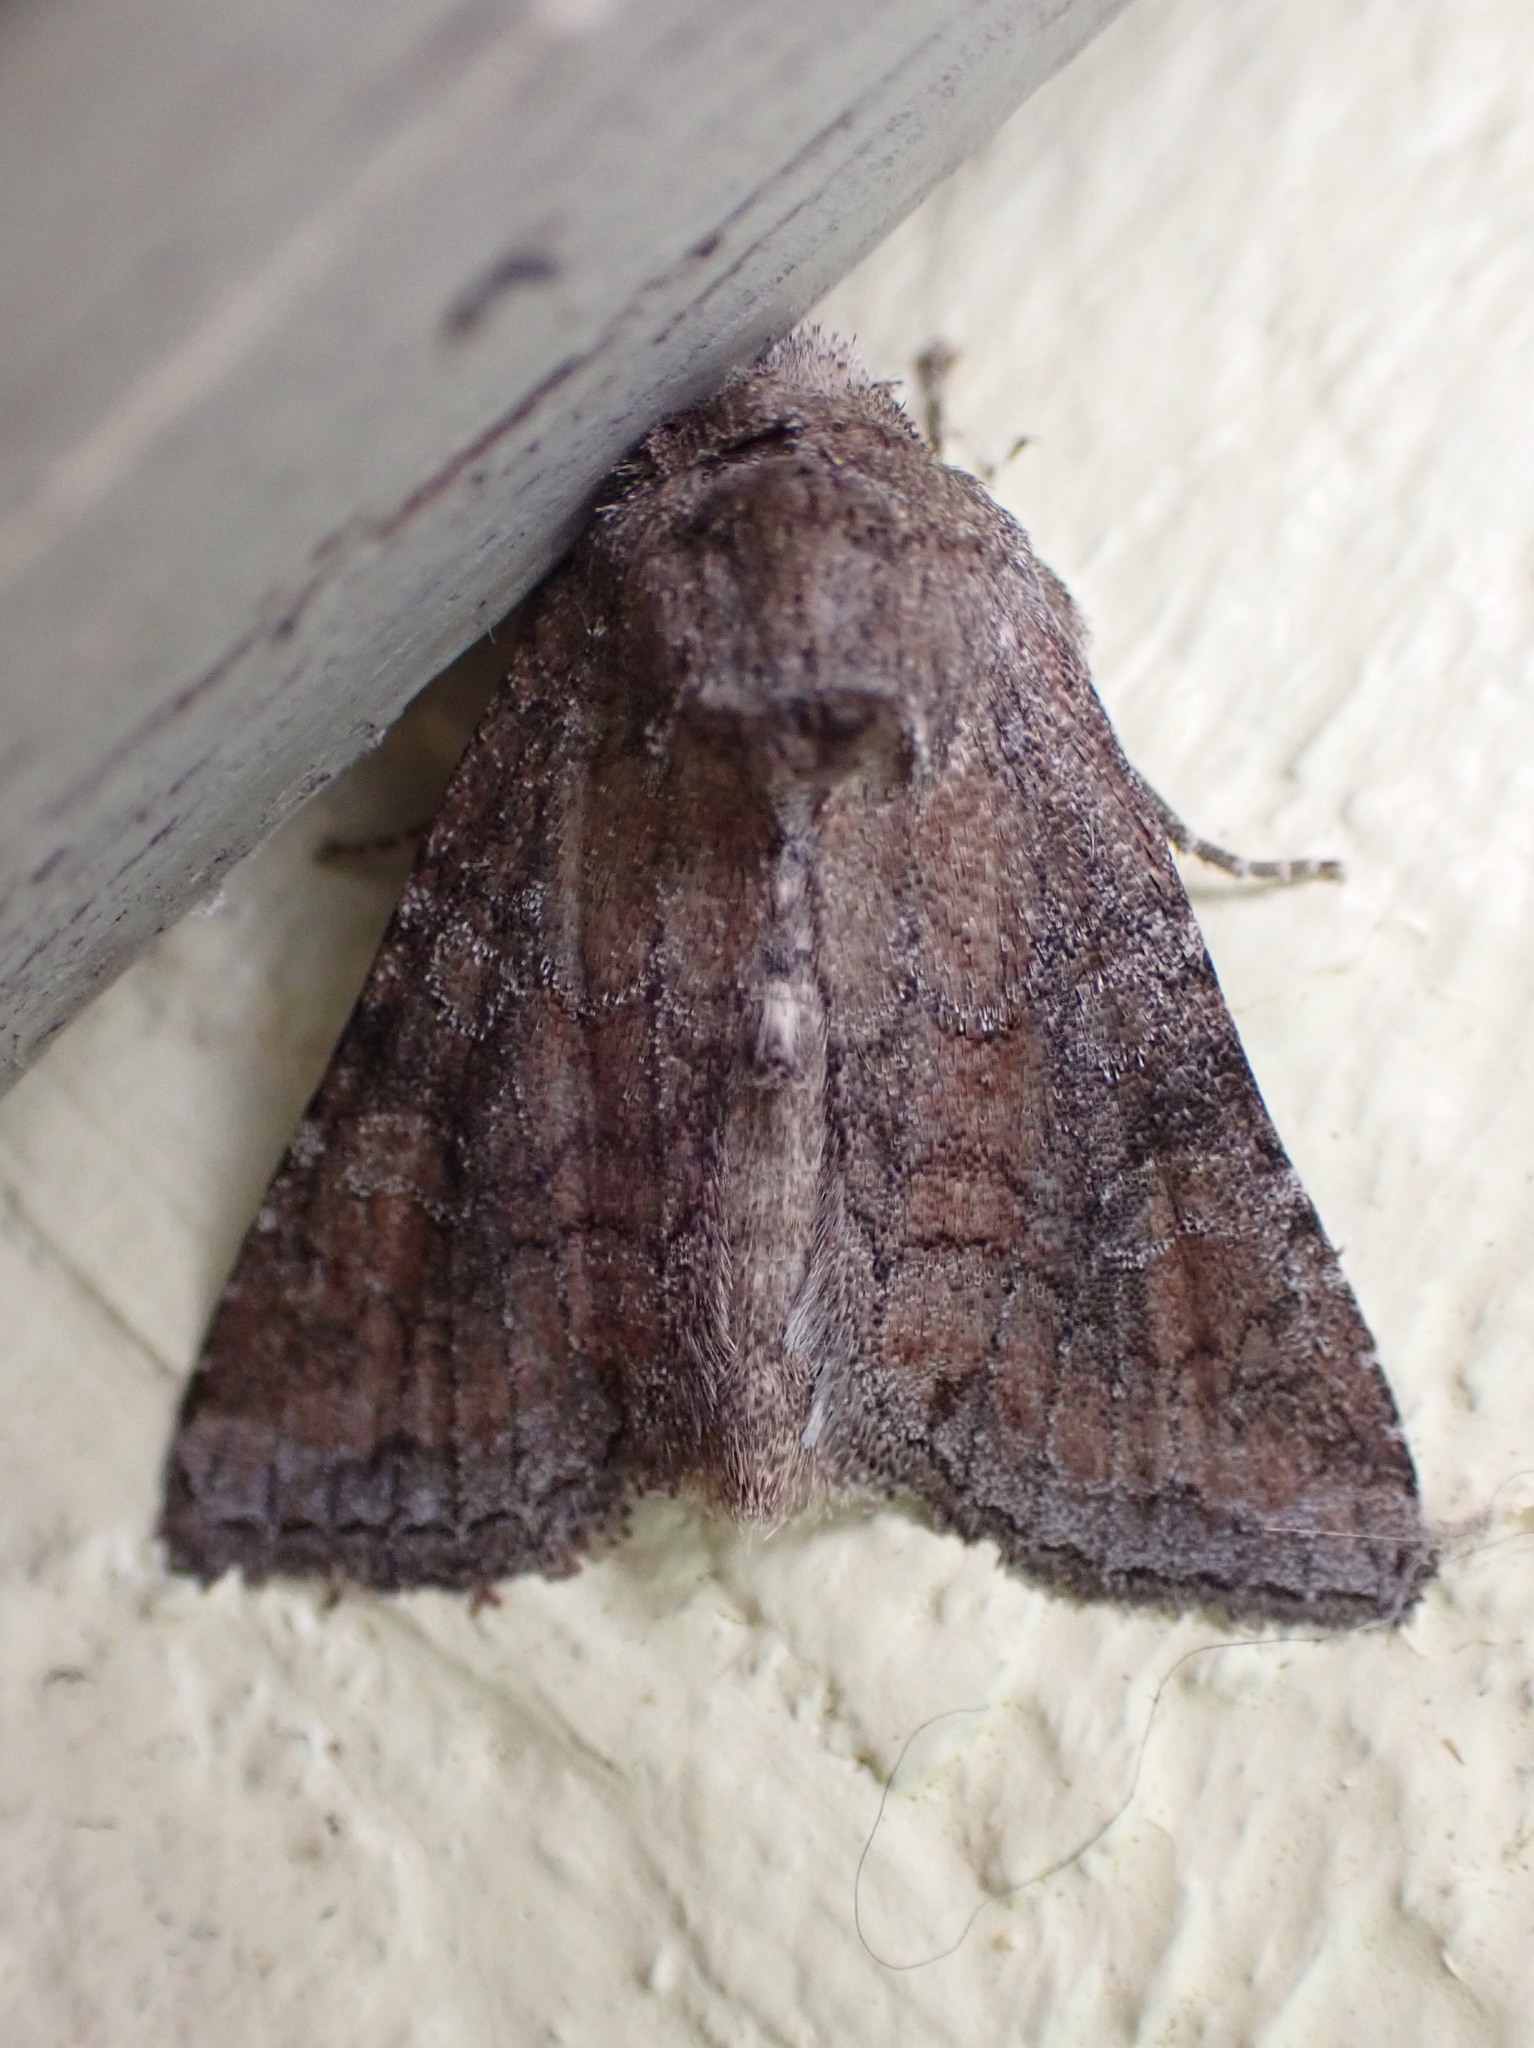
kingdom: Animalia
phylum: Arthropoda
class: Insecta
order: Lepidoptera
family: Noctuidae
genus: Lacinipolia
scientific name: Lacinipolia meditata
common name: Thinker moth
